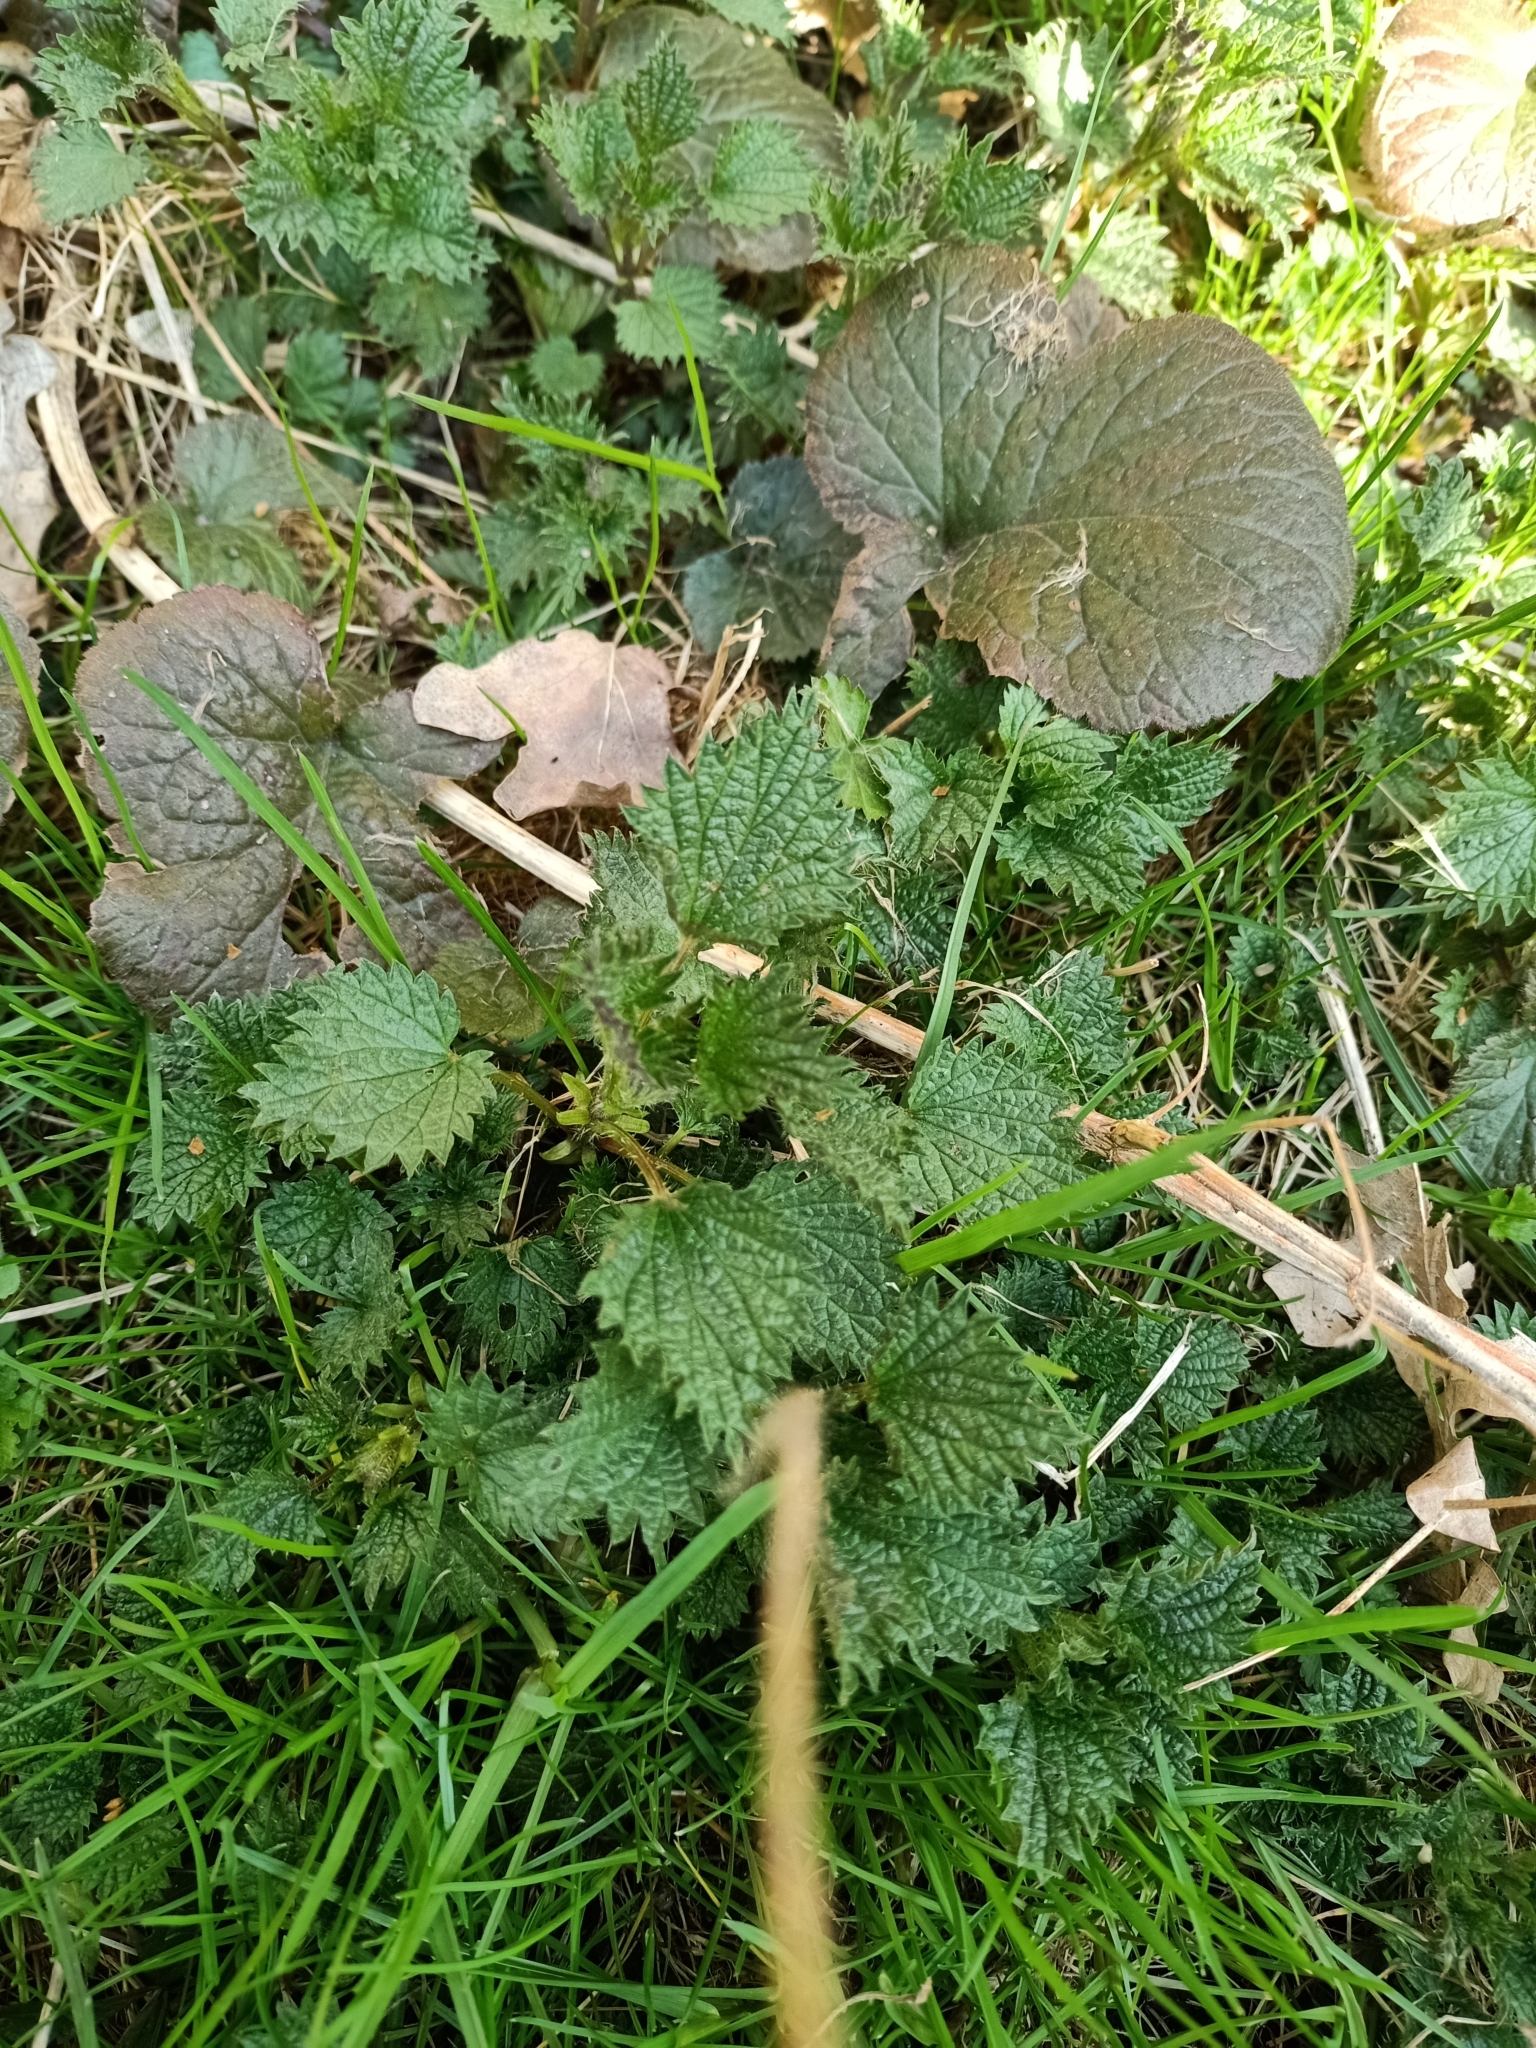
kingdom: Plantae
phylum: Tracheophyta
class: Magnoliopsida
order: Rosales
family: Urticaceae
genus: Urtica
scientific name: Urtica dioica
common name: Common nettle
